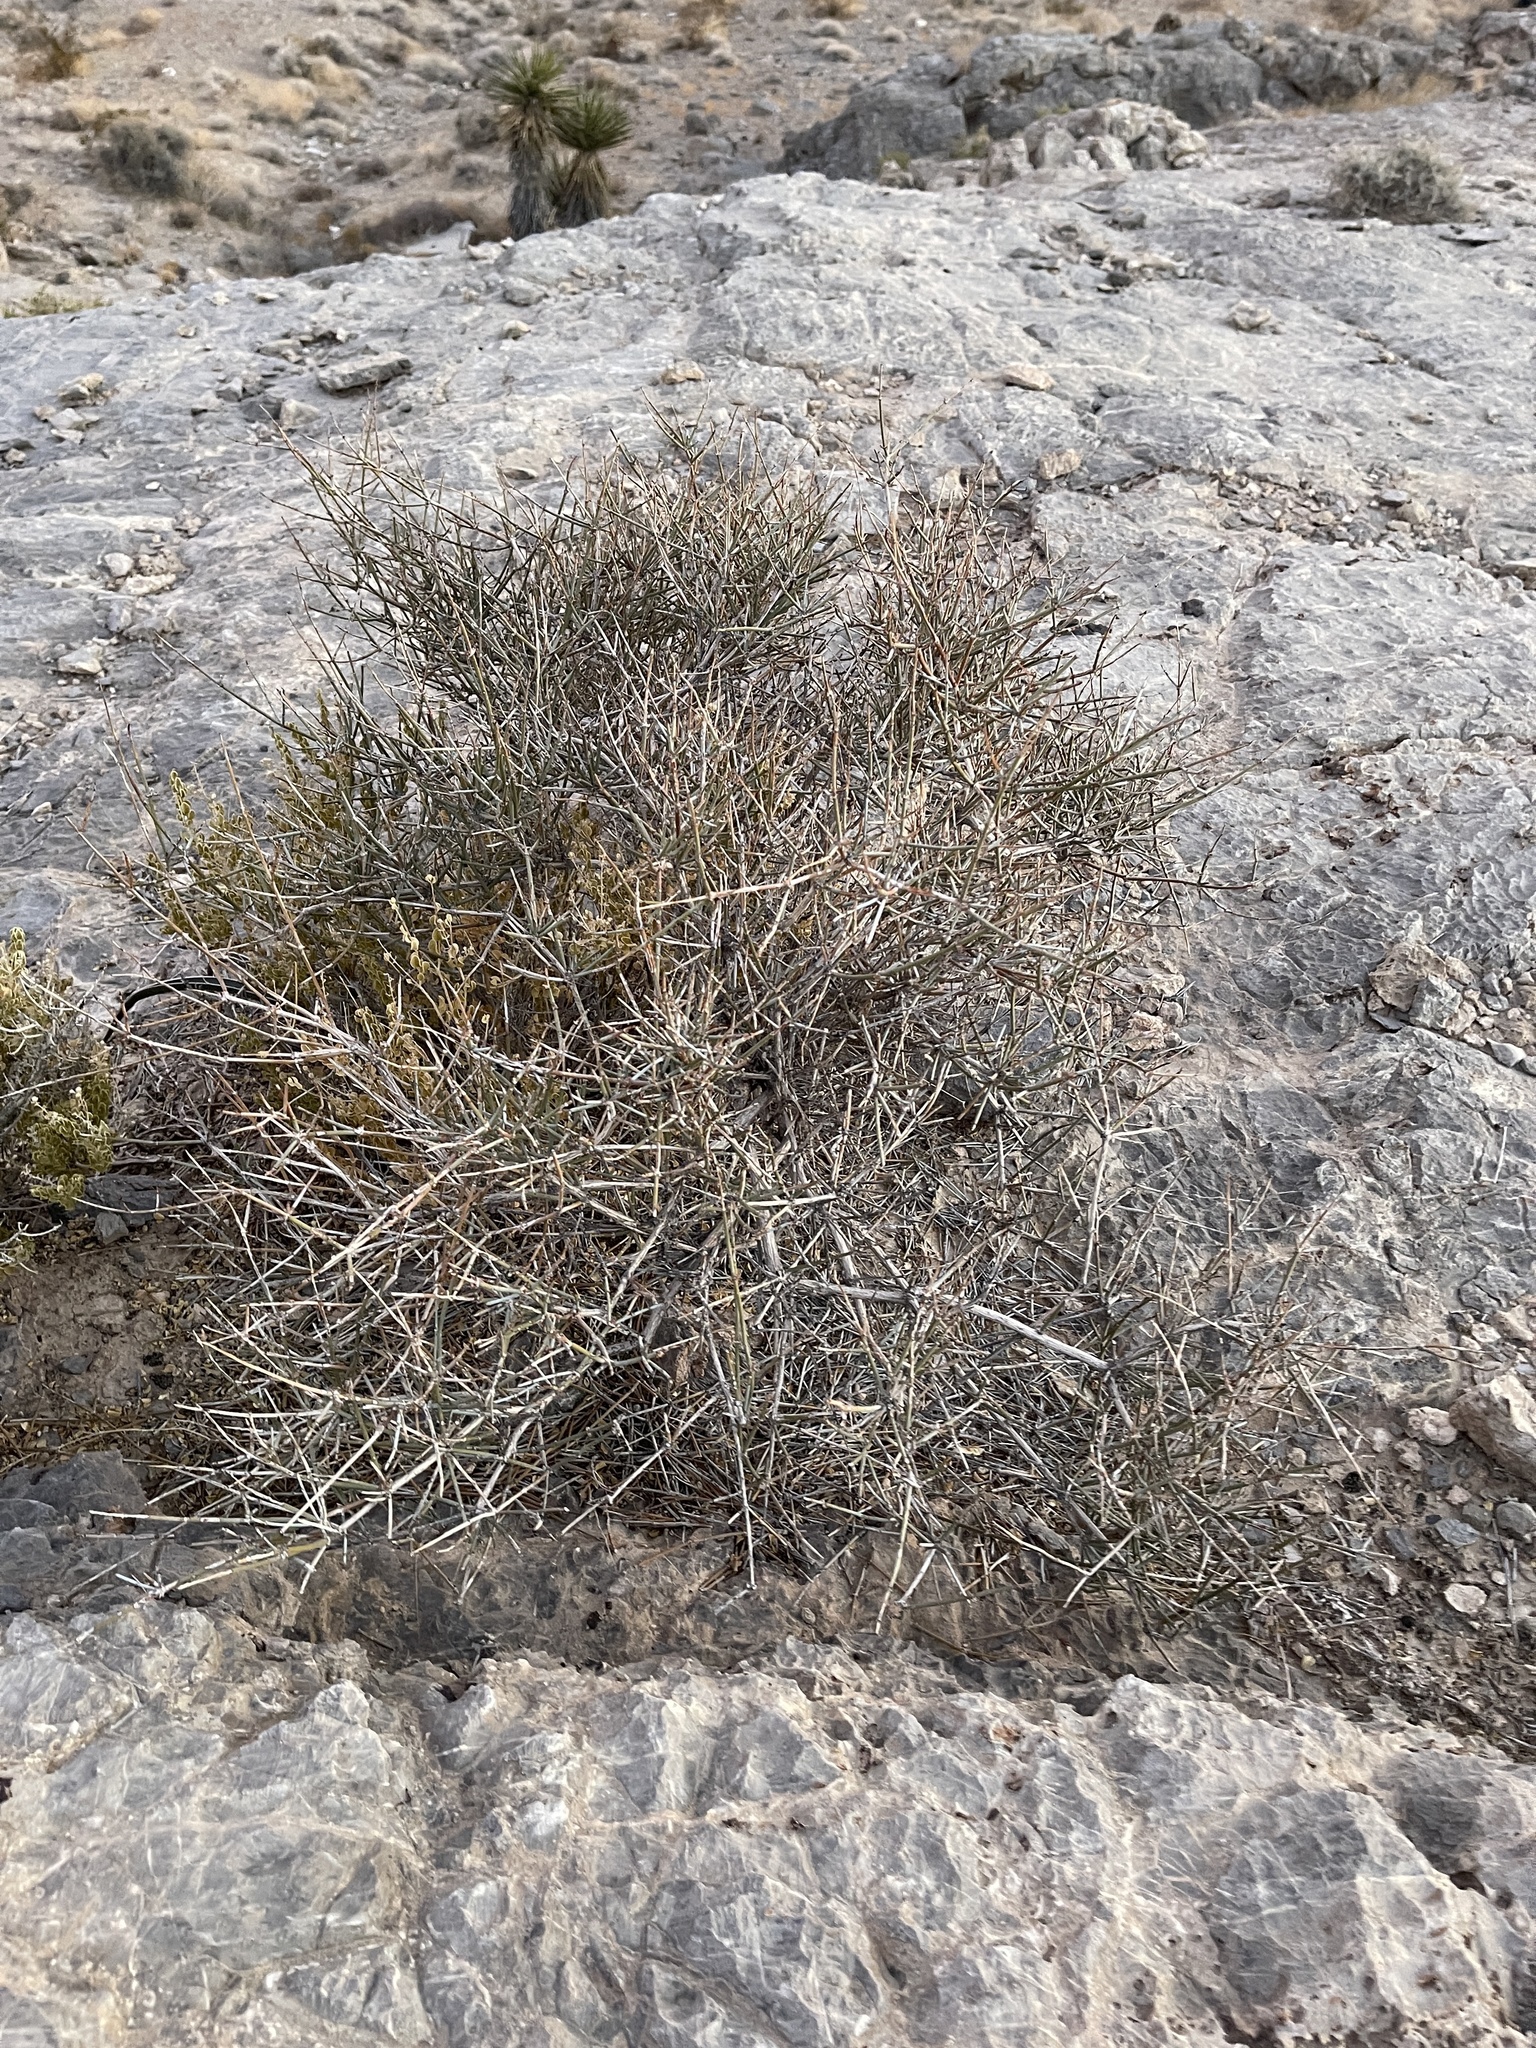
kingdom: Plantae
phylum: Tracheophyta
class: Gnetopsida
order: Ephedrales
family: Ephedraceae
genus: Ephedra
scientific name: Ephedra nevadensis
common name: Gray ephedra
